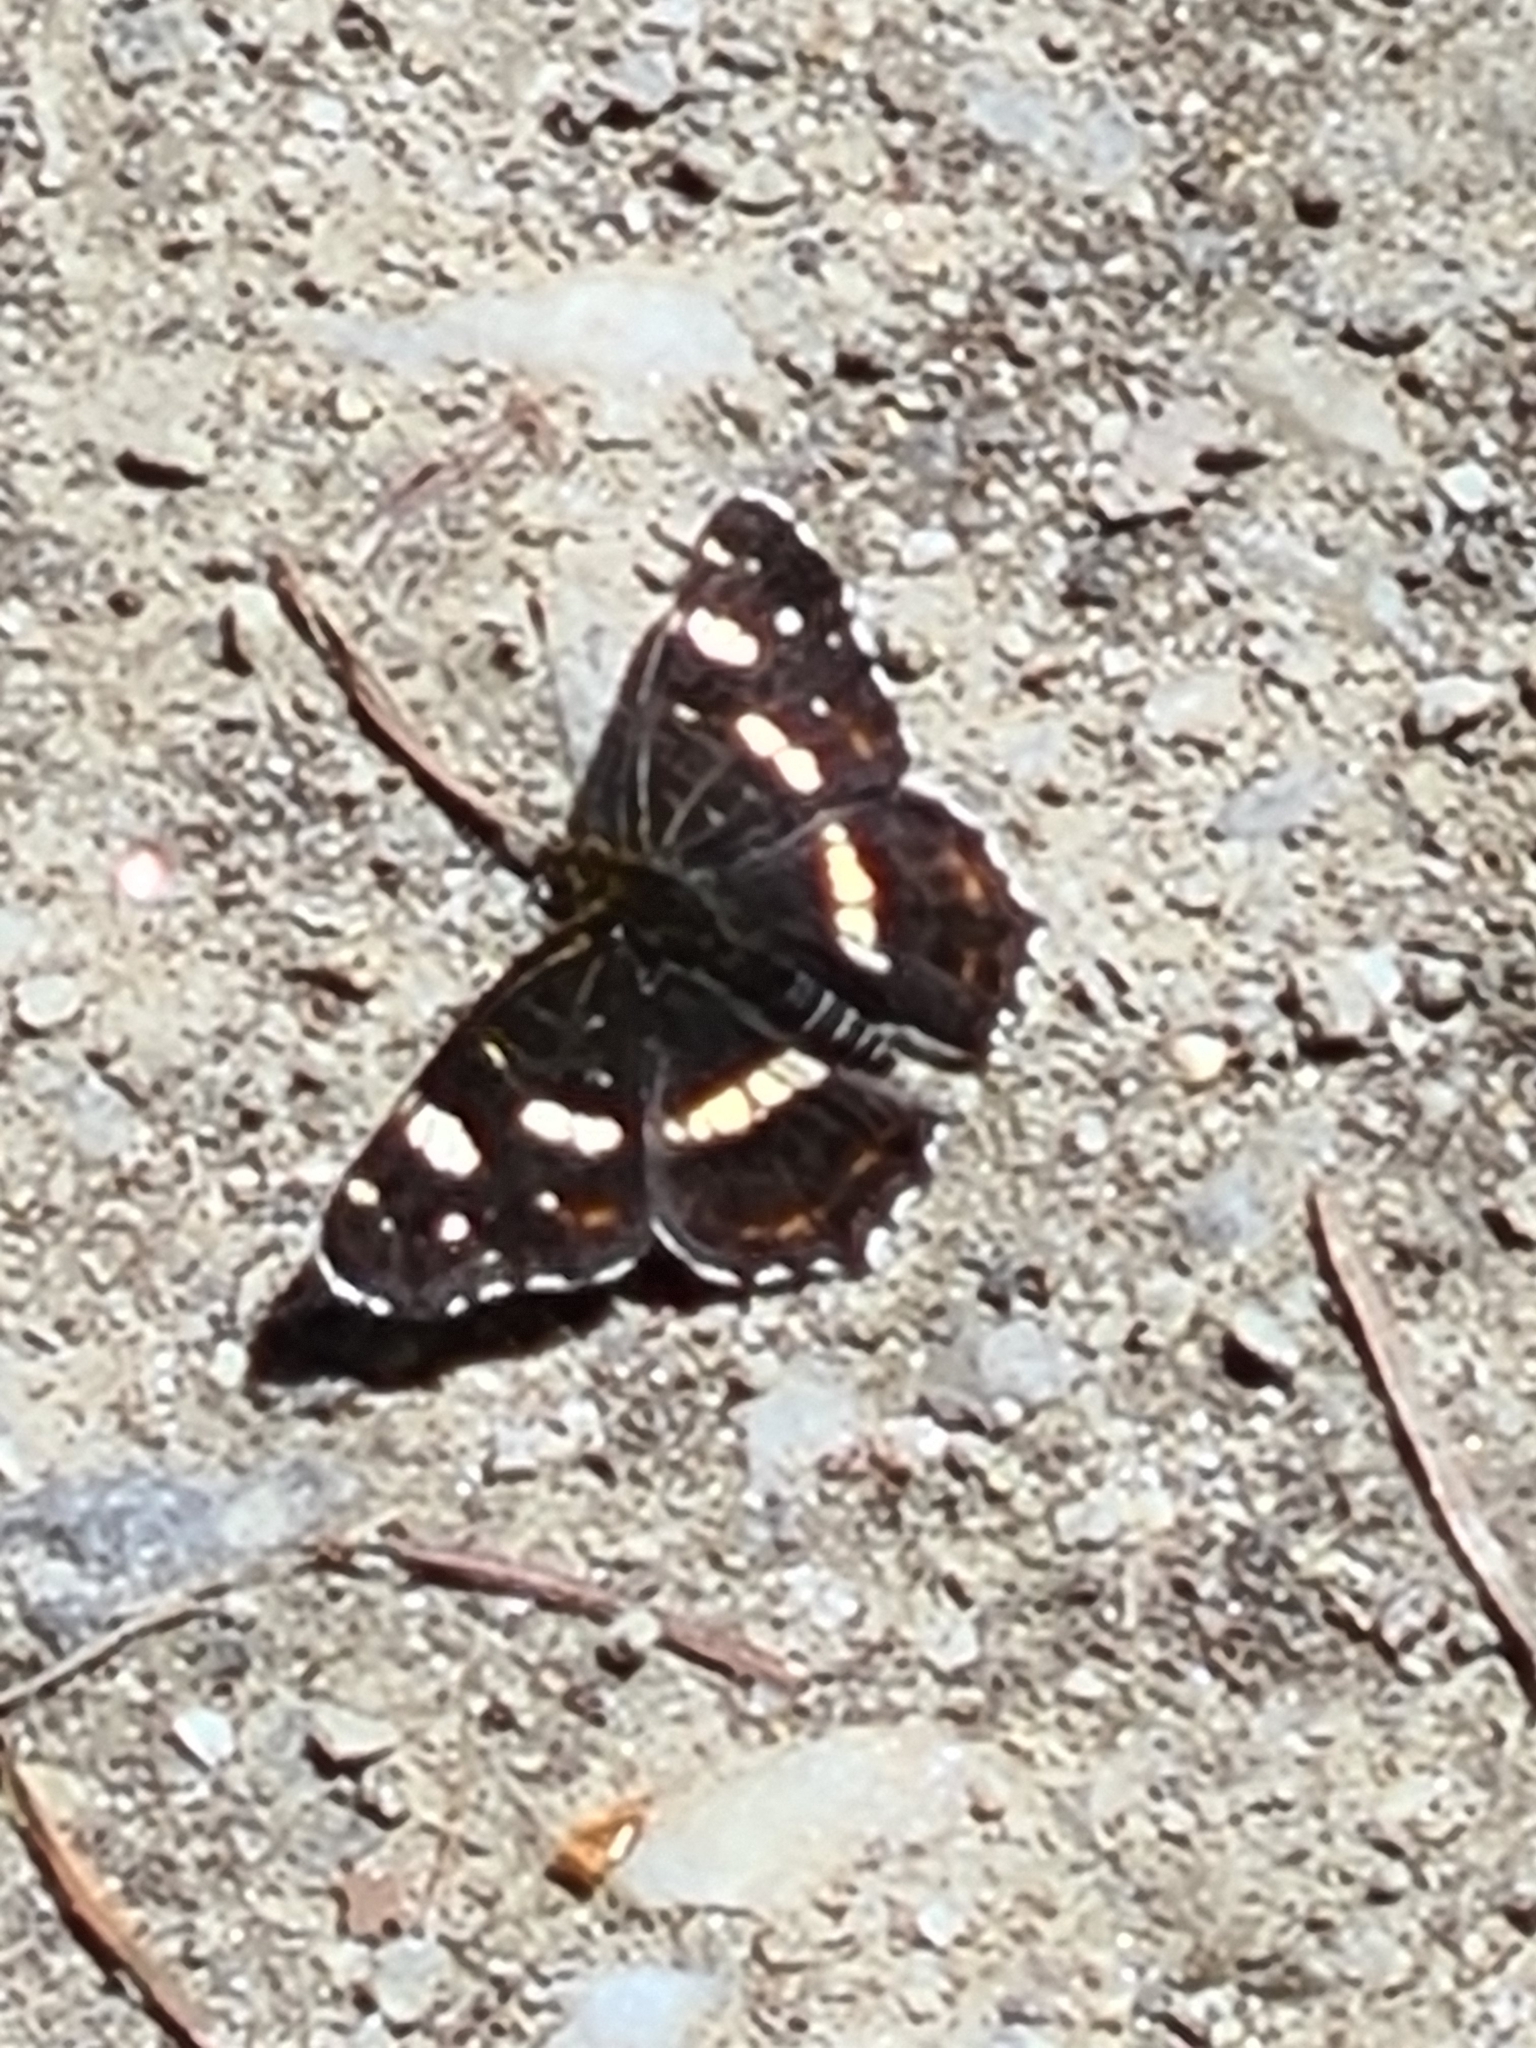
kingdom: Animalia
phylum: Arthropoda
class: Insecta
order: Lepidoptera
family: Nymphalidae
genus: Araschnia
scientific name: Araschnia levana
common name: Map butterfly
